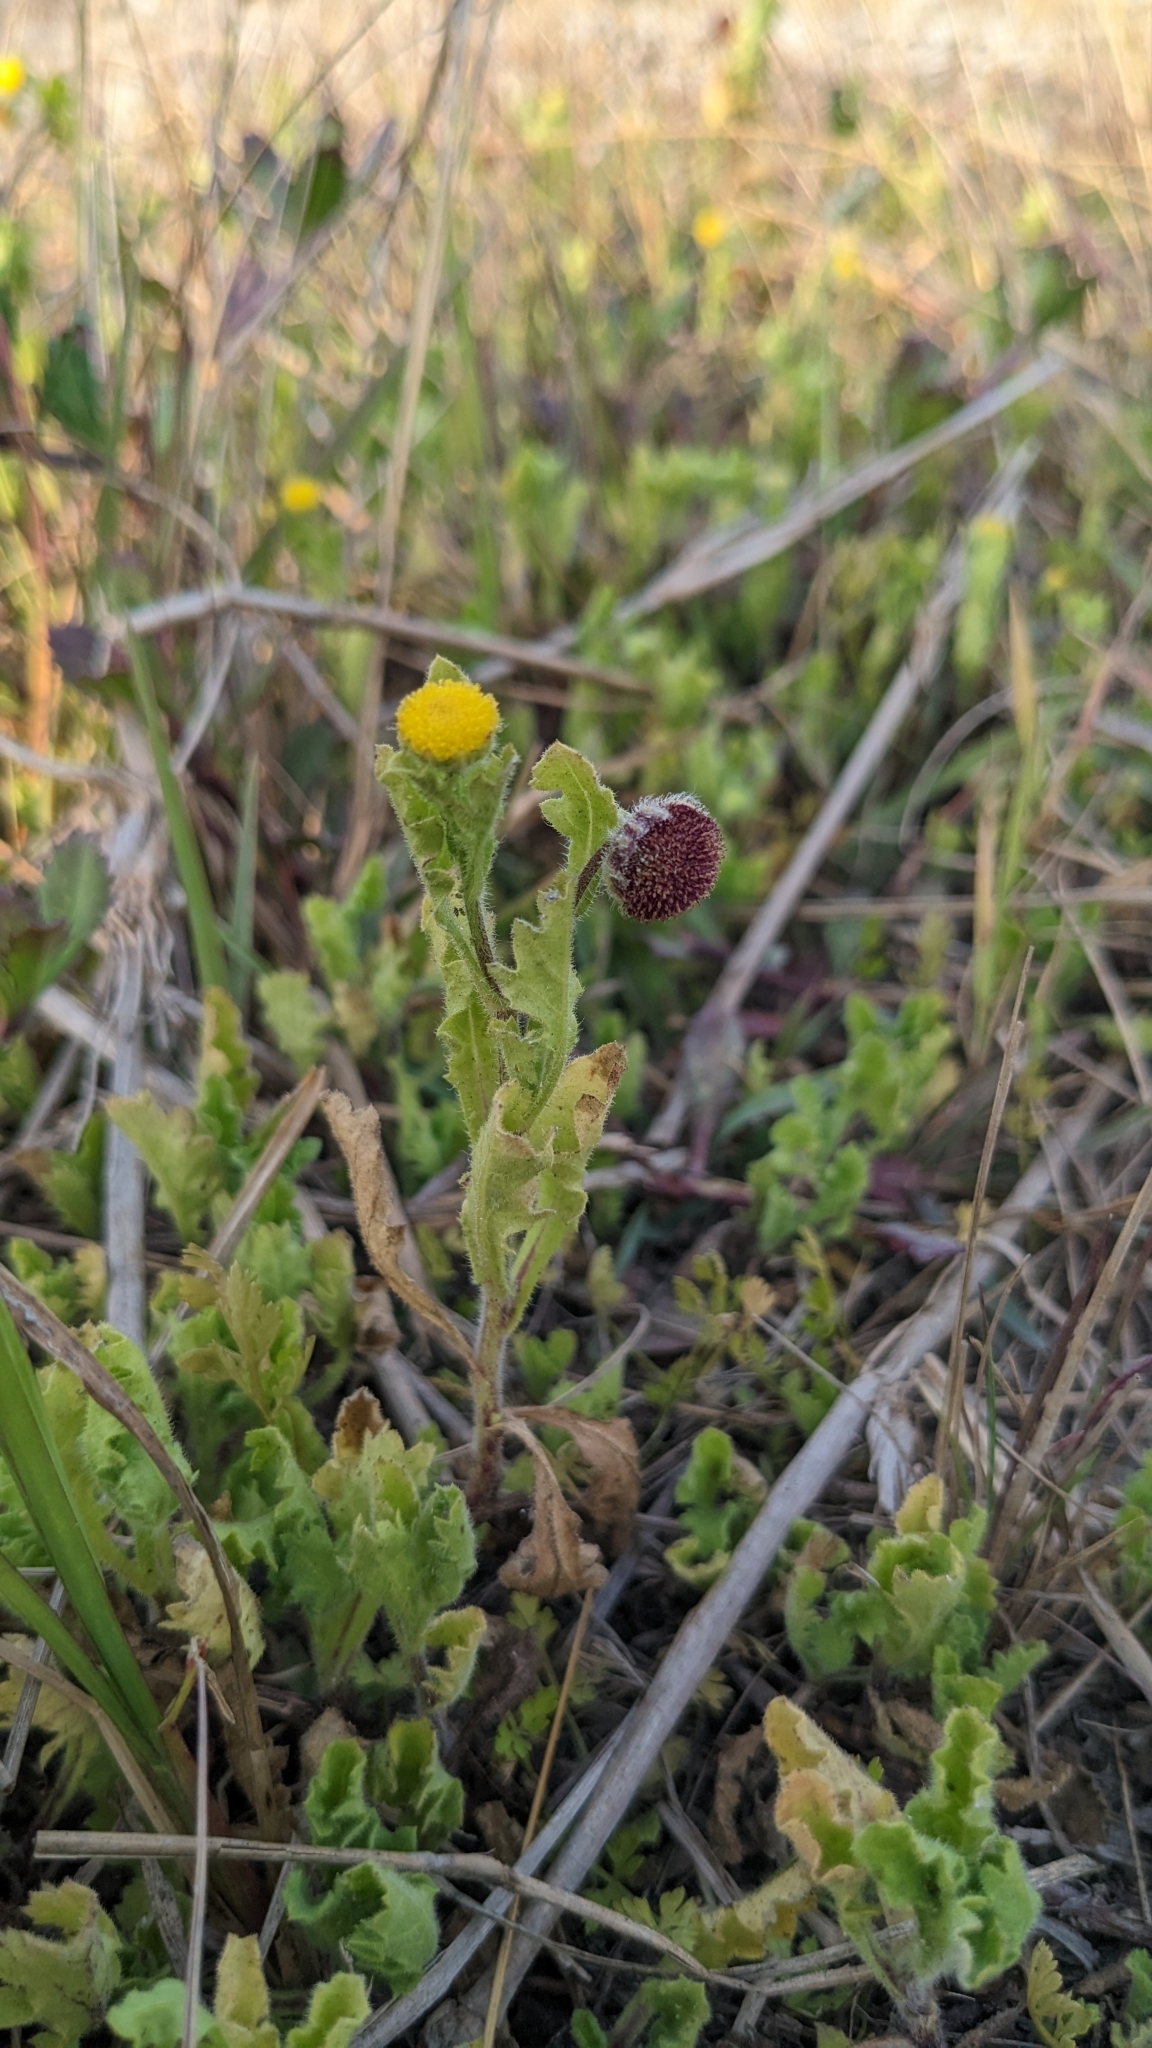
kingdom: Plantae
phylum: Tracheophyta
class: Magnoliopsida
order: Asterales
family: Asteraceae
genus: Grangea
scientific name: Grangea maderaspatana
